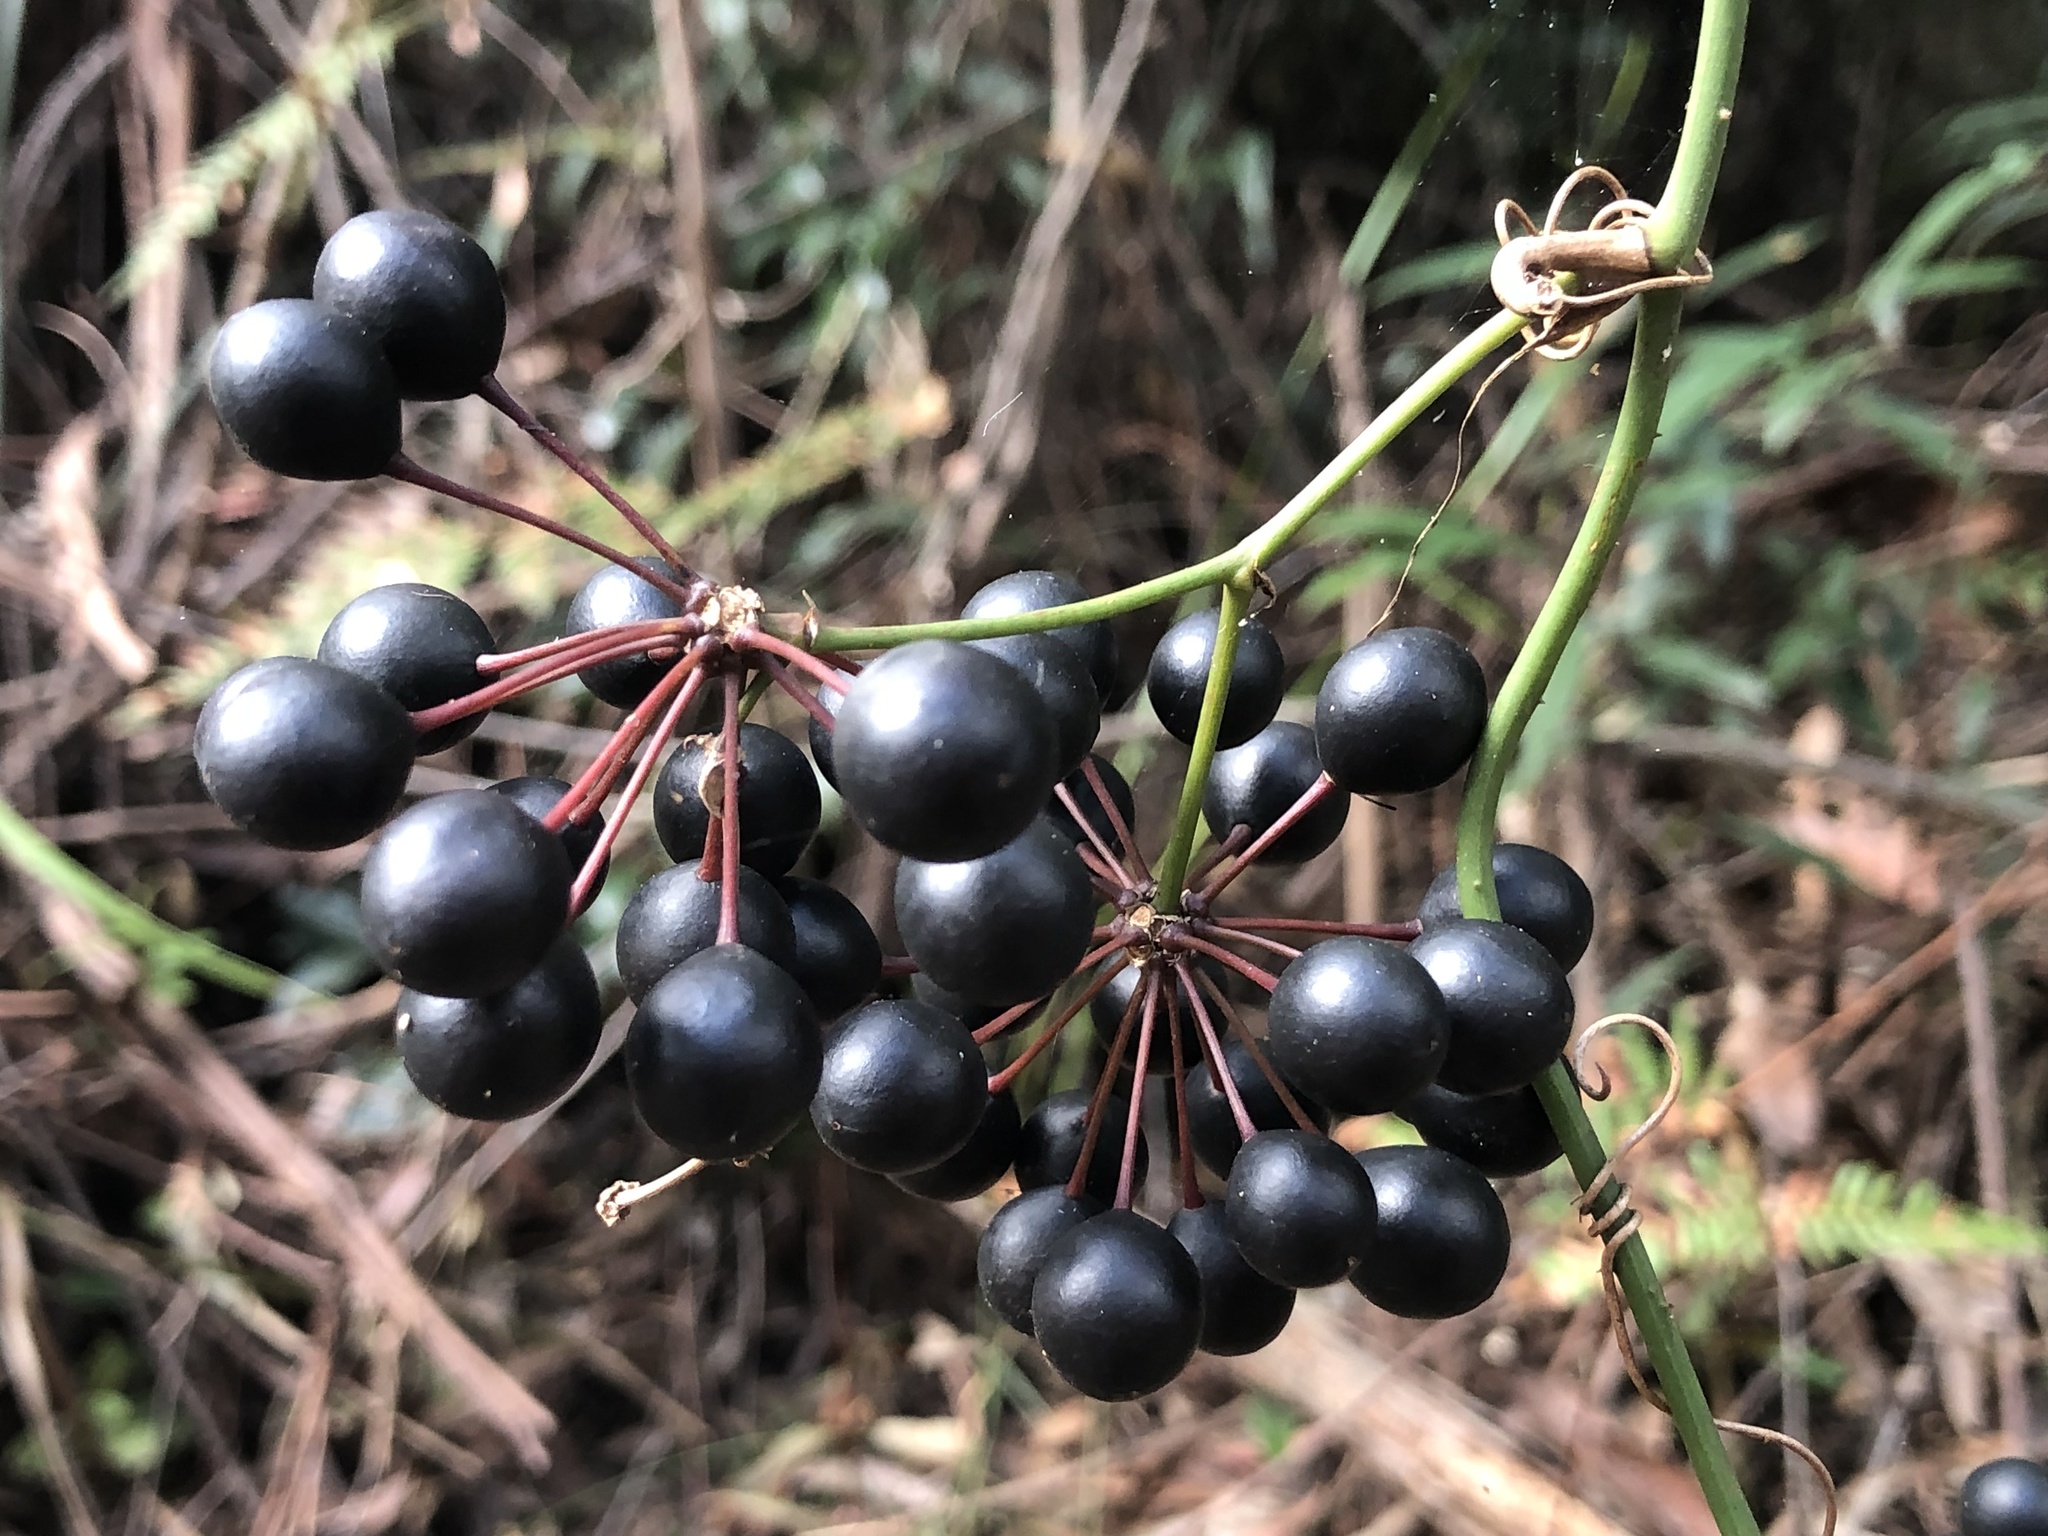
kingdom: Plantae
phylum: Tracheophyta
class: Liliopsida
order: Liliales
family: Smilacaceae
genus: Smilax
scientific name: Smilax australis
